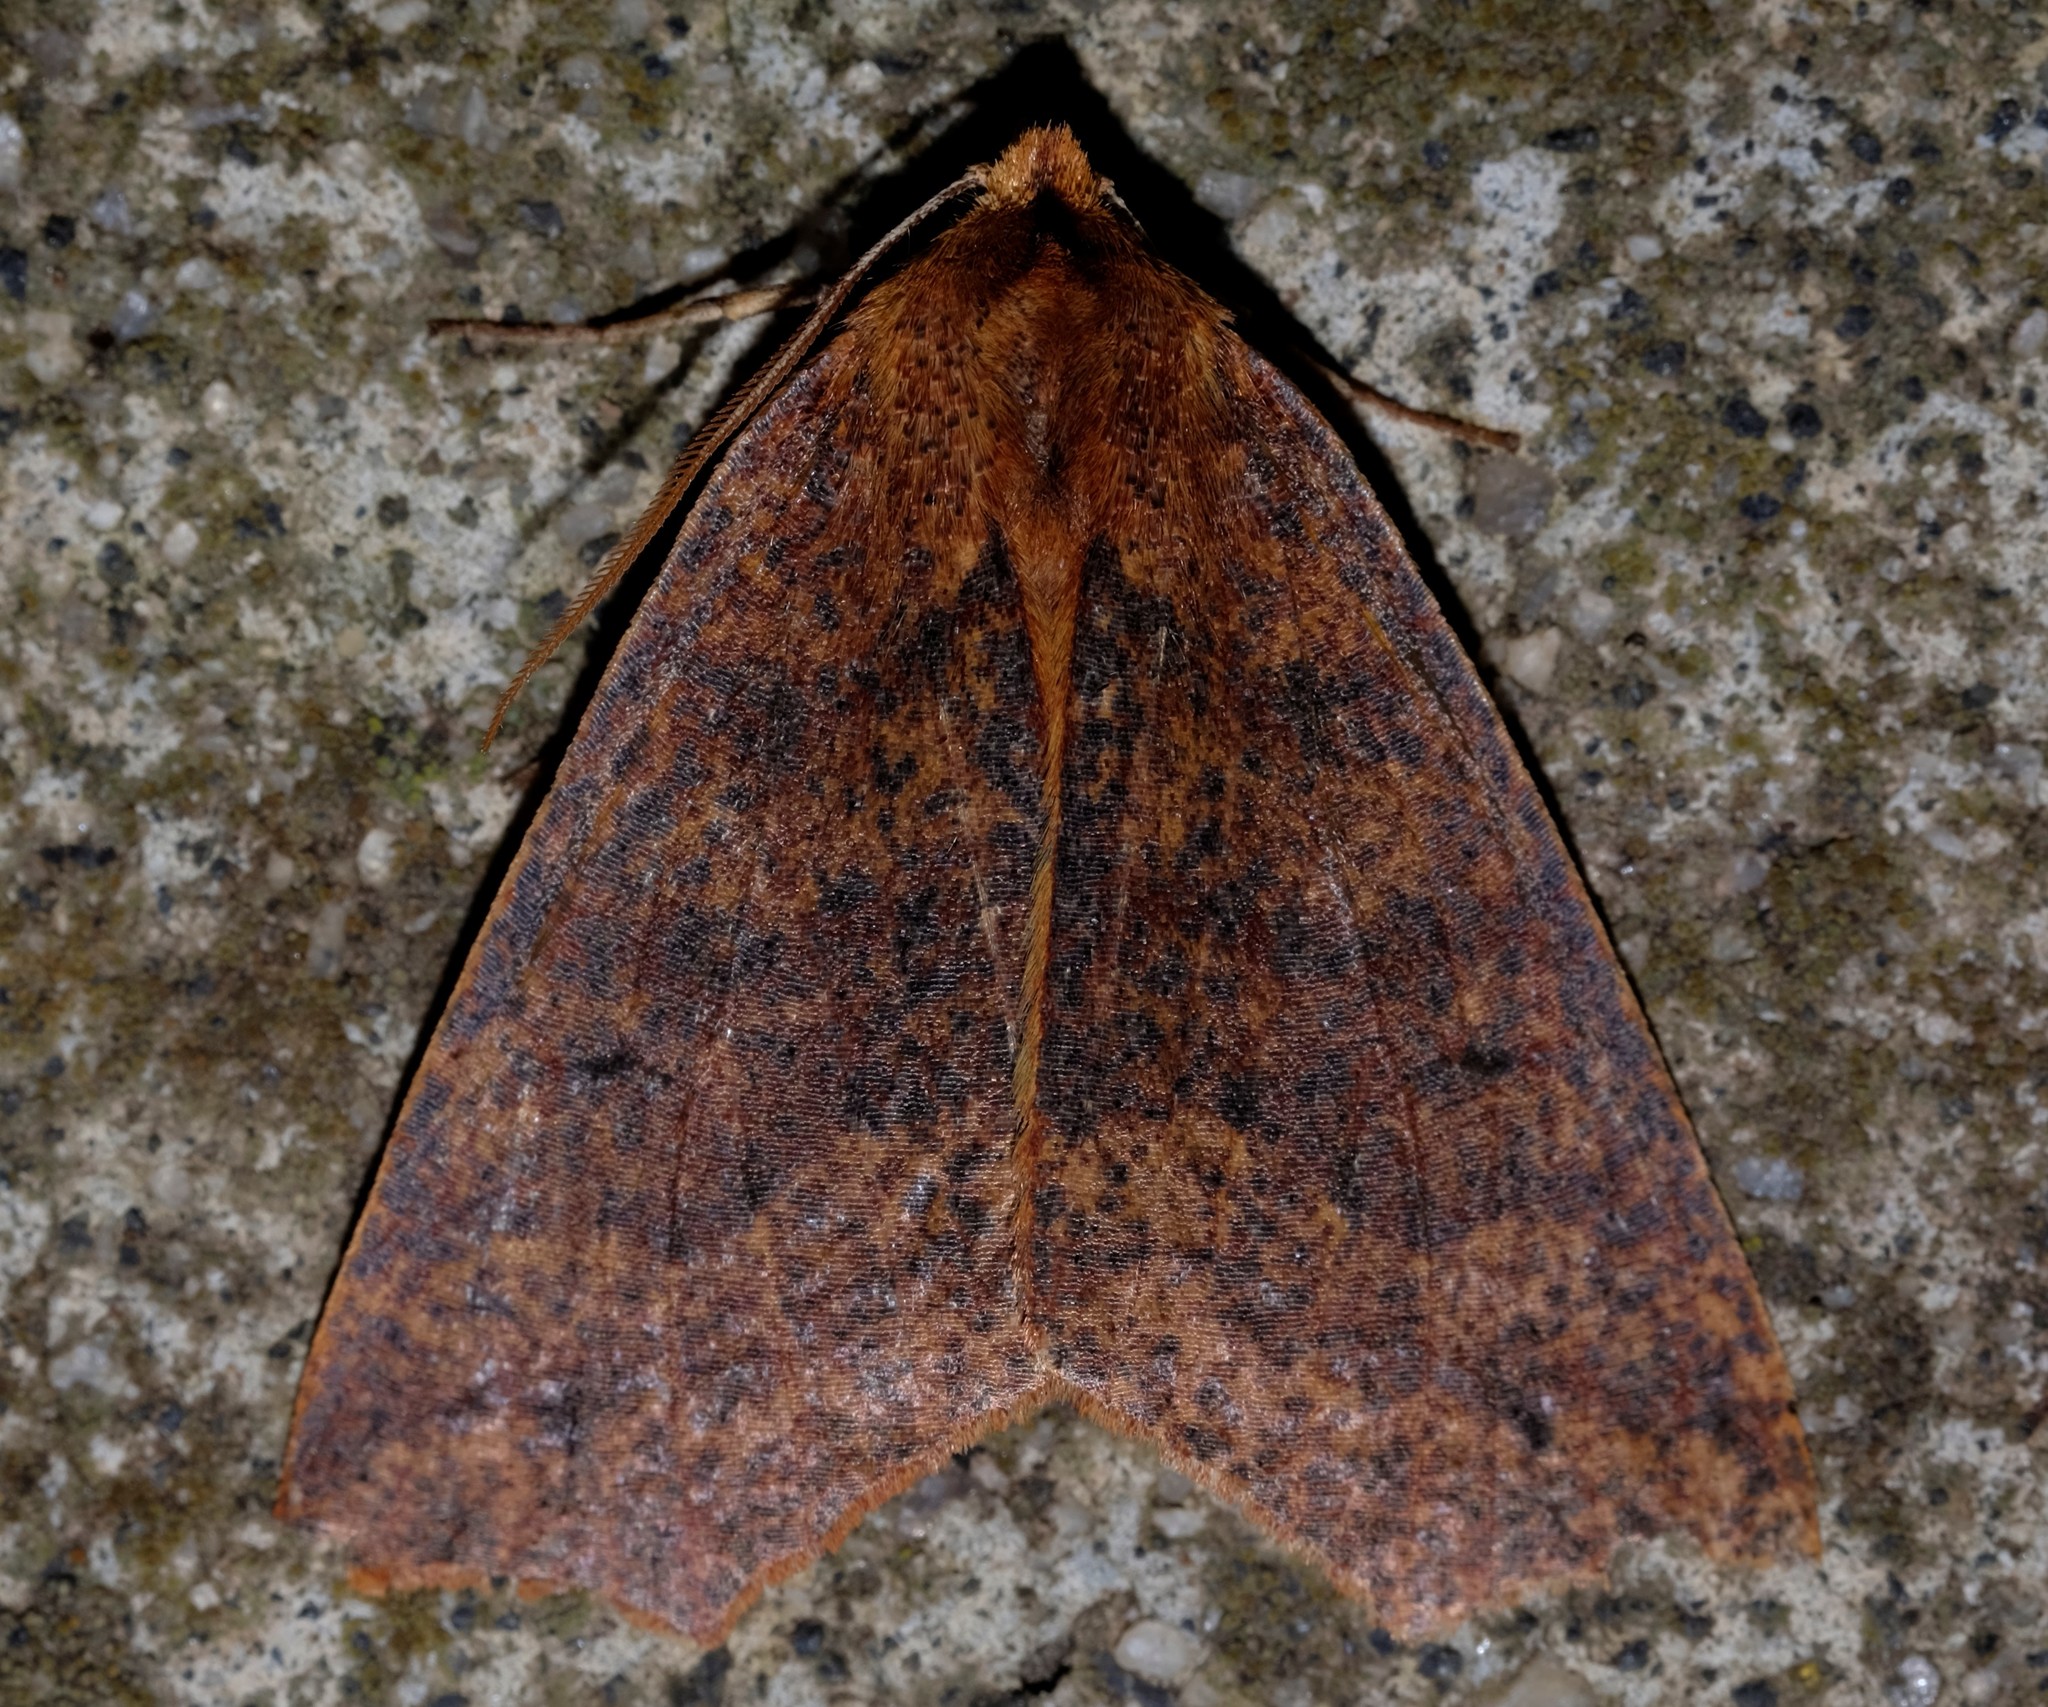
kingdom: Animalia
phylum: Arthropoda
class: Insecta
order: Lepidoptera
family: Geometridae
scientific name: Geometridae
